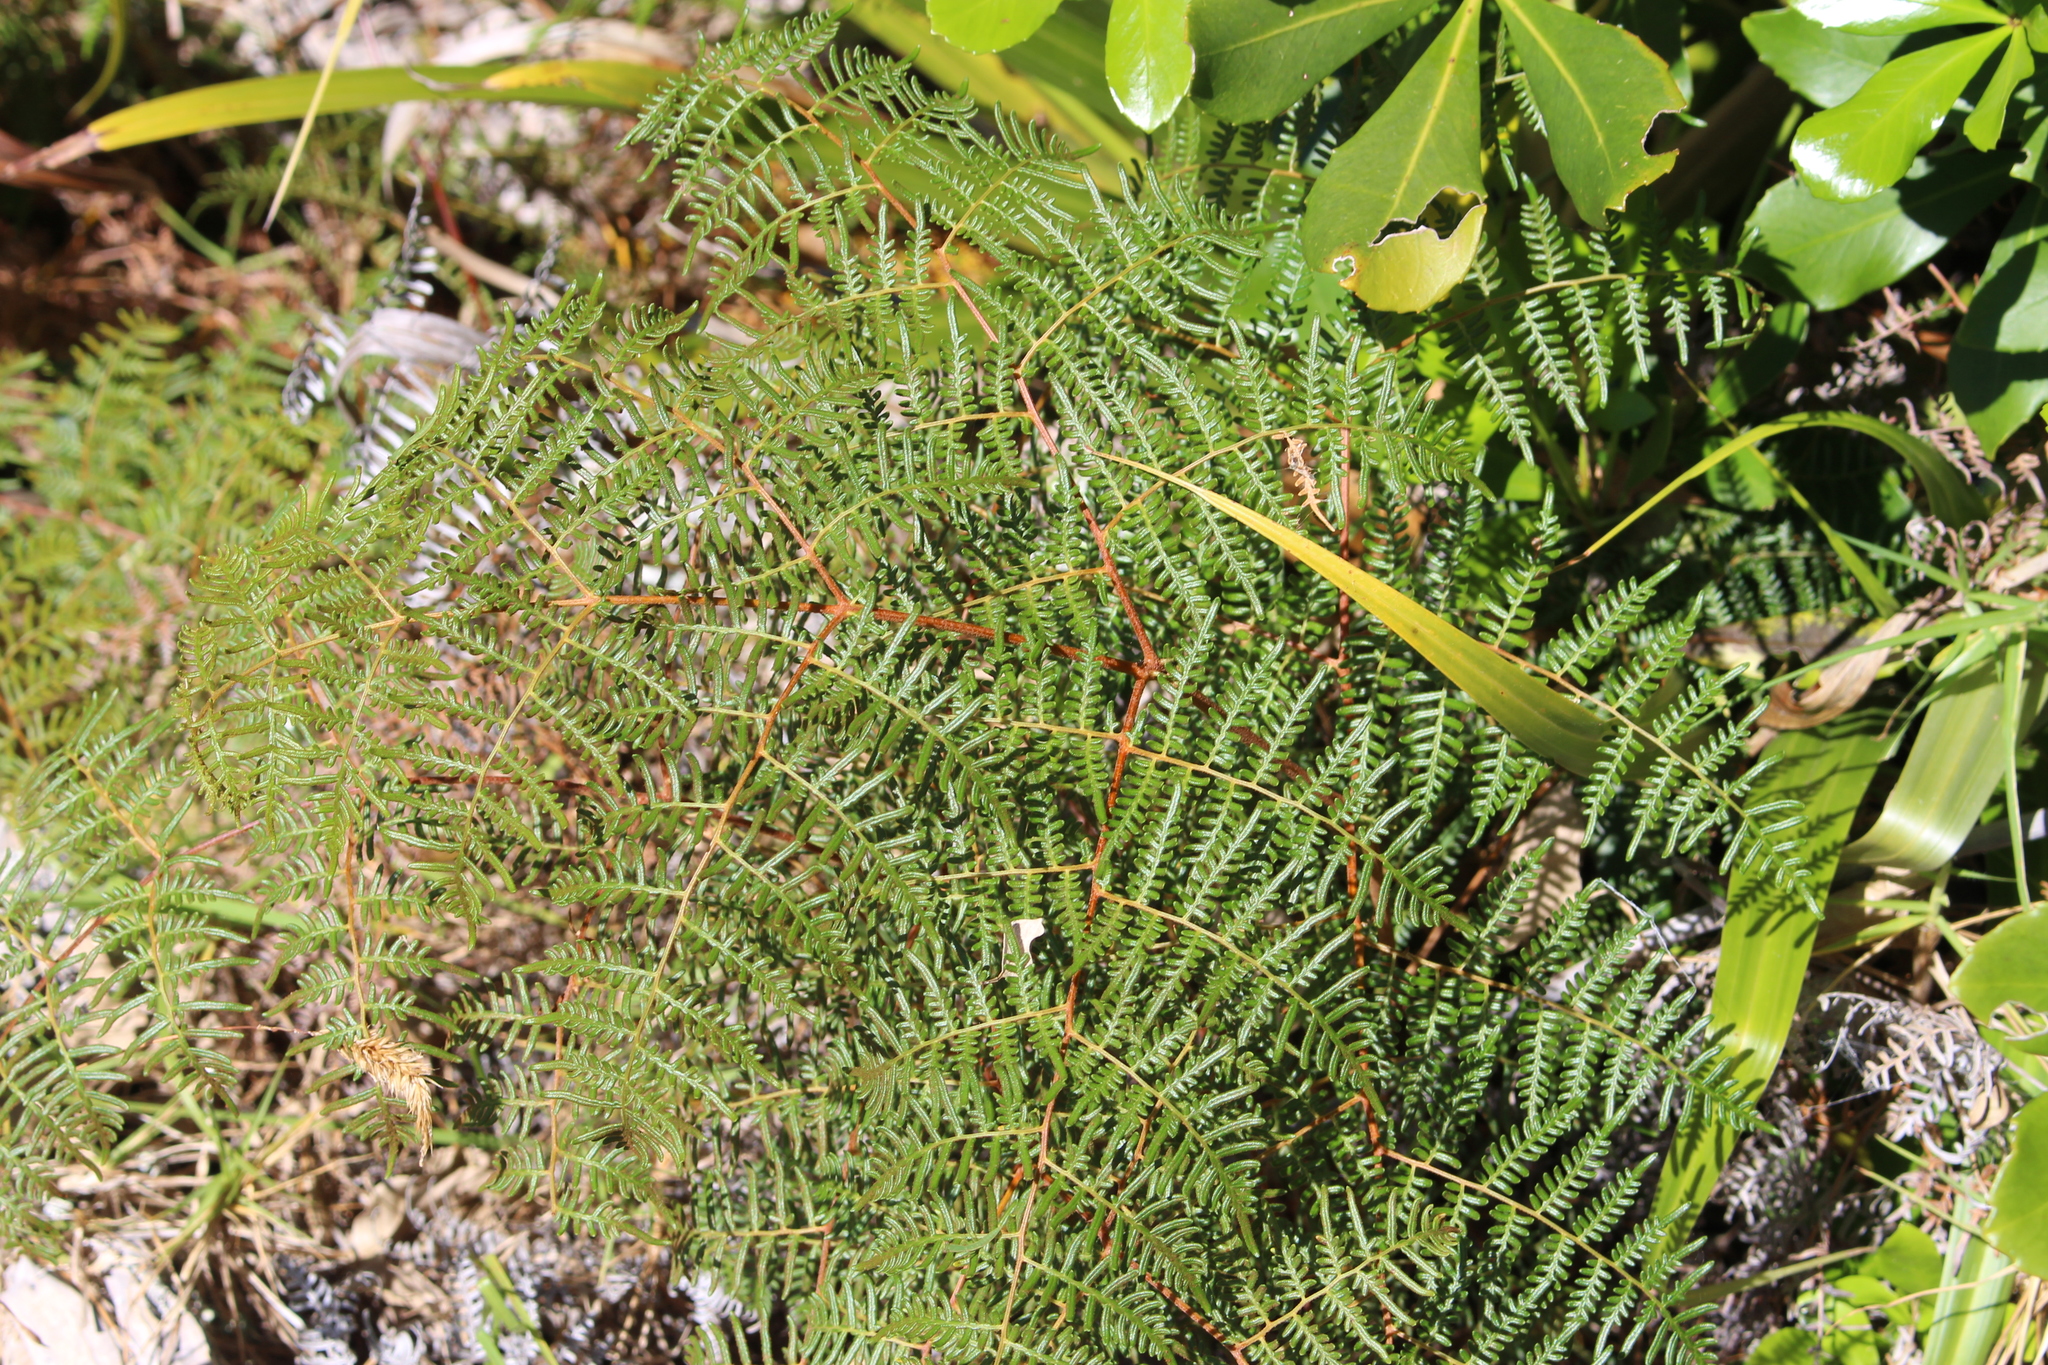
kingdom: Plantae
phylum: Tracheophyta
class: Polypodiopsida
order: Polypodiales
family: Dennstaedtiaceae
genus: Pteridium
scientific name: Pteridium esculentum
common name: Bracken fern
